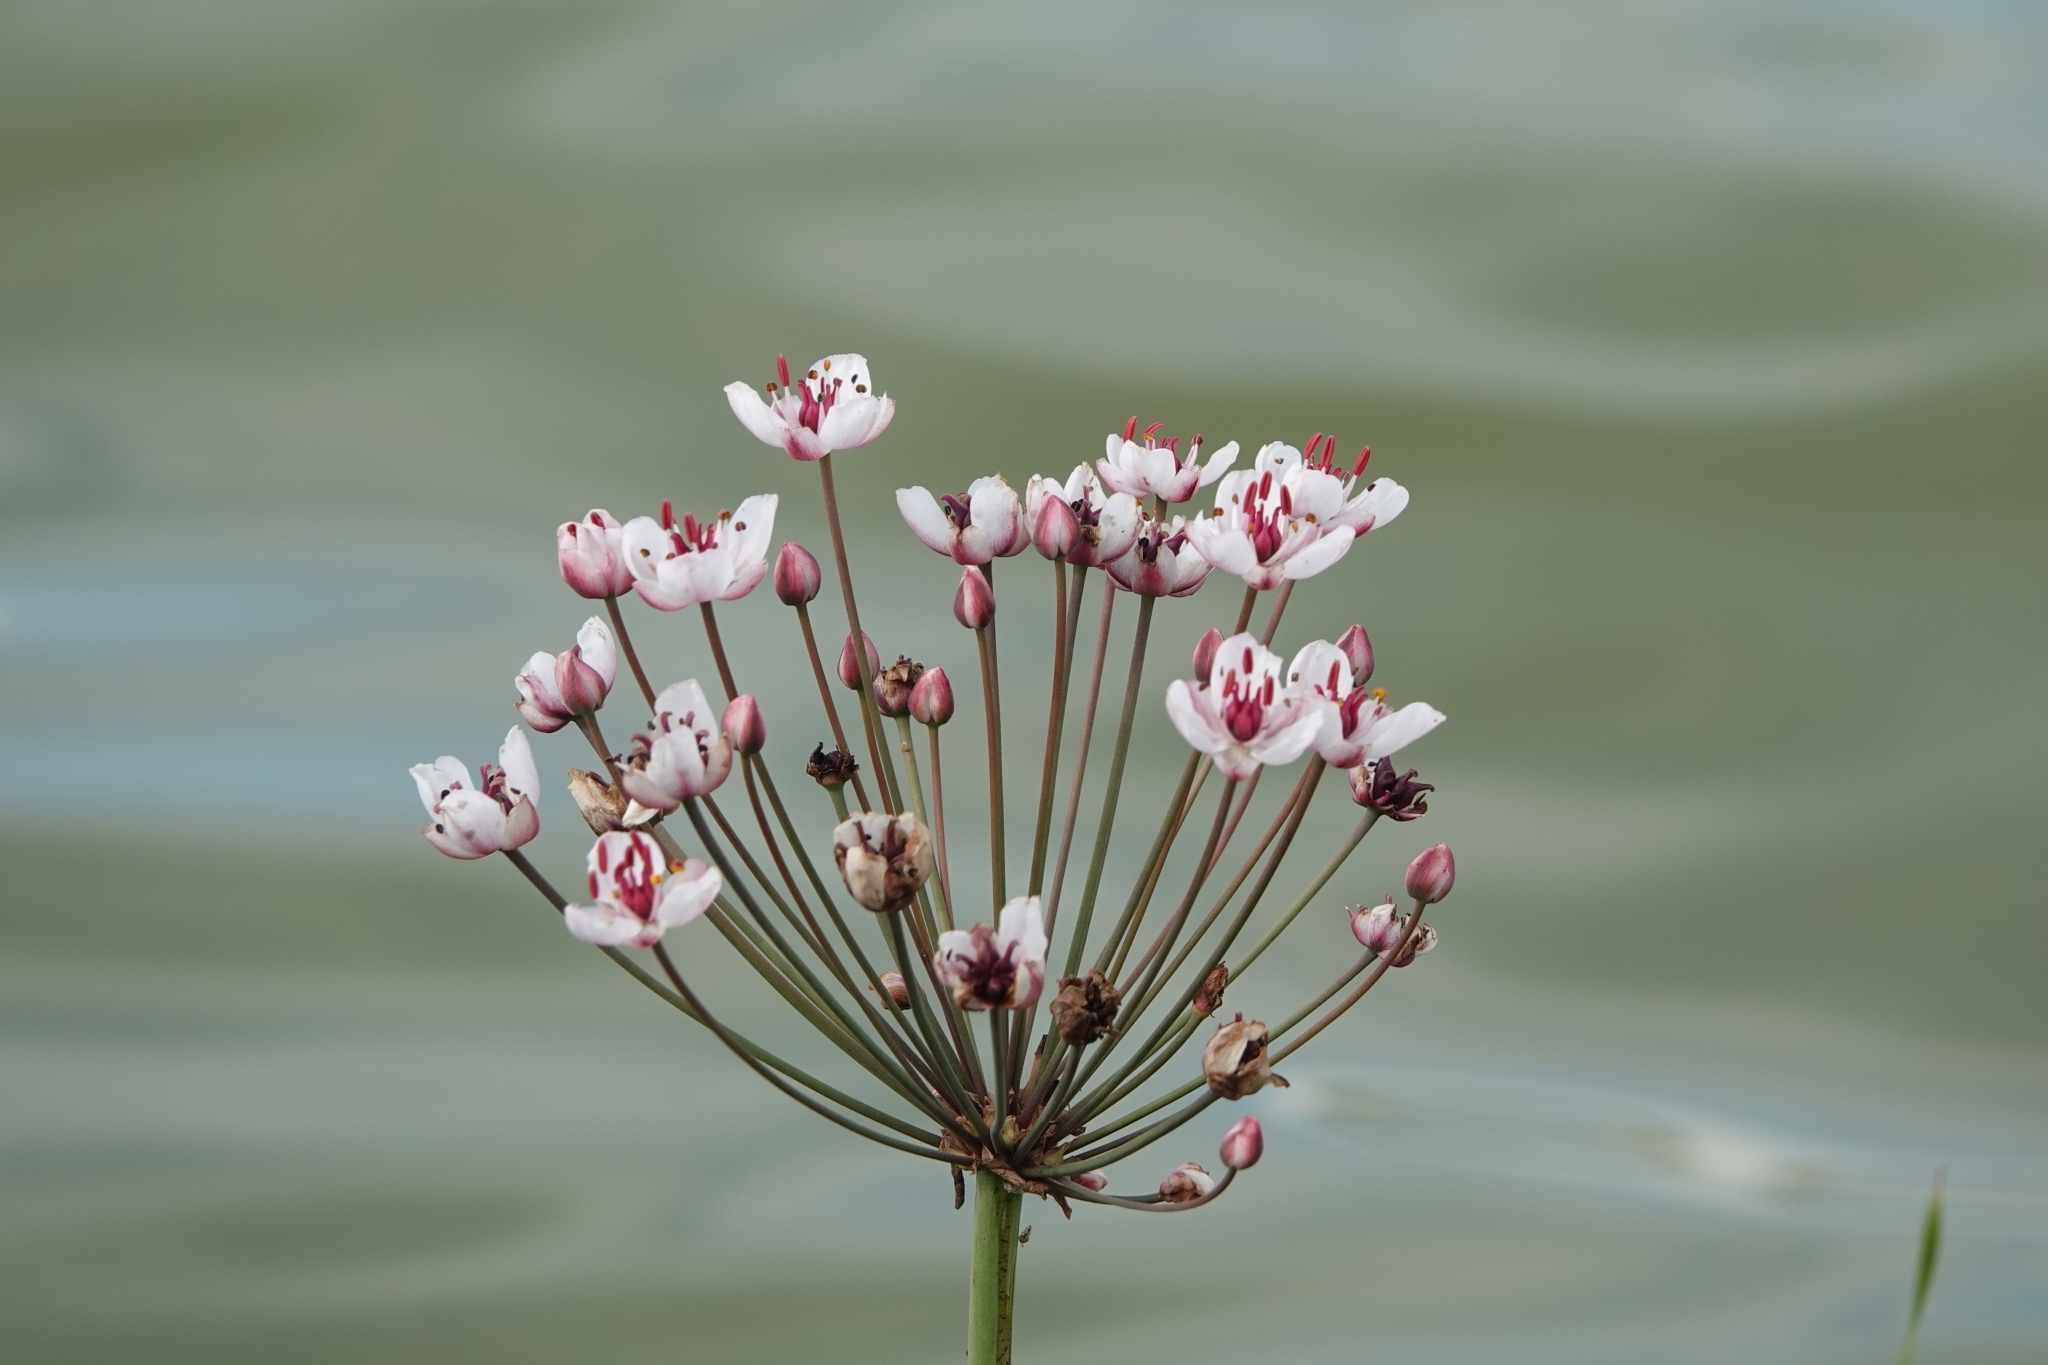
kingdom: Plantae
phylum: Tracheophyta
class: Liliopsida
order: Alismatales
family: Butomaceae
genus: Butomus
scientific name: Butomus umbellatus
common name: Flowering-rush
